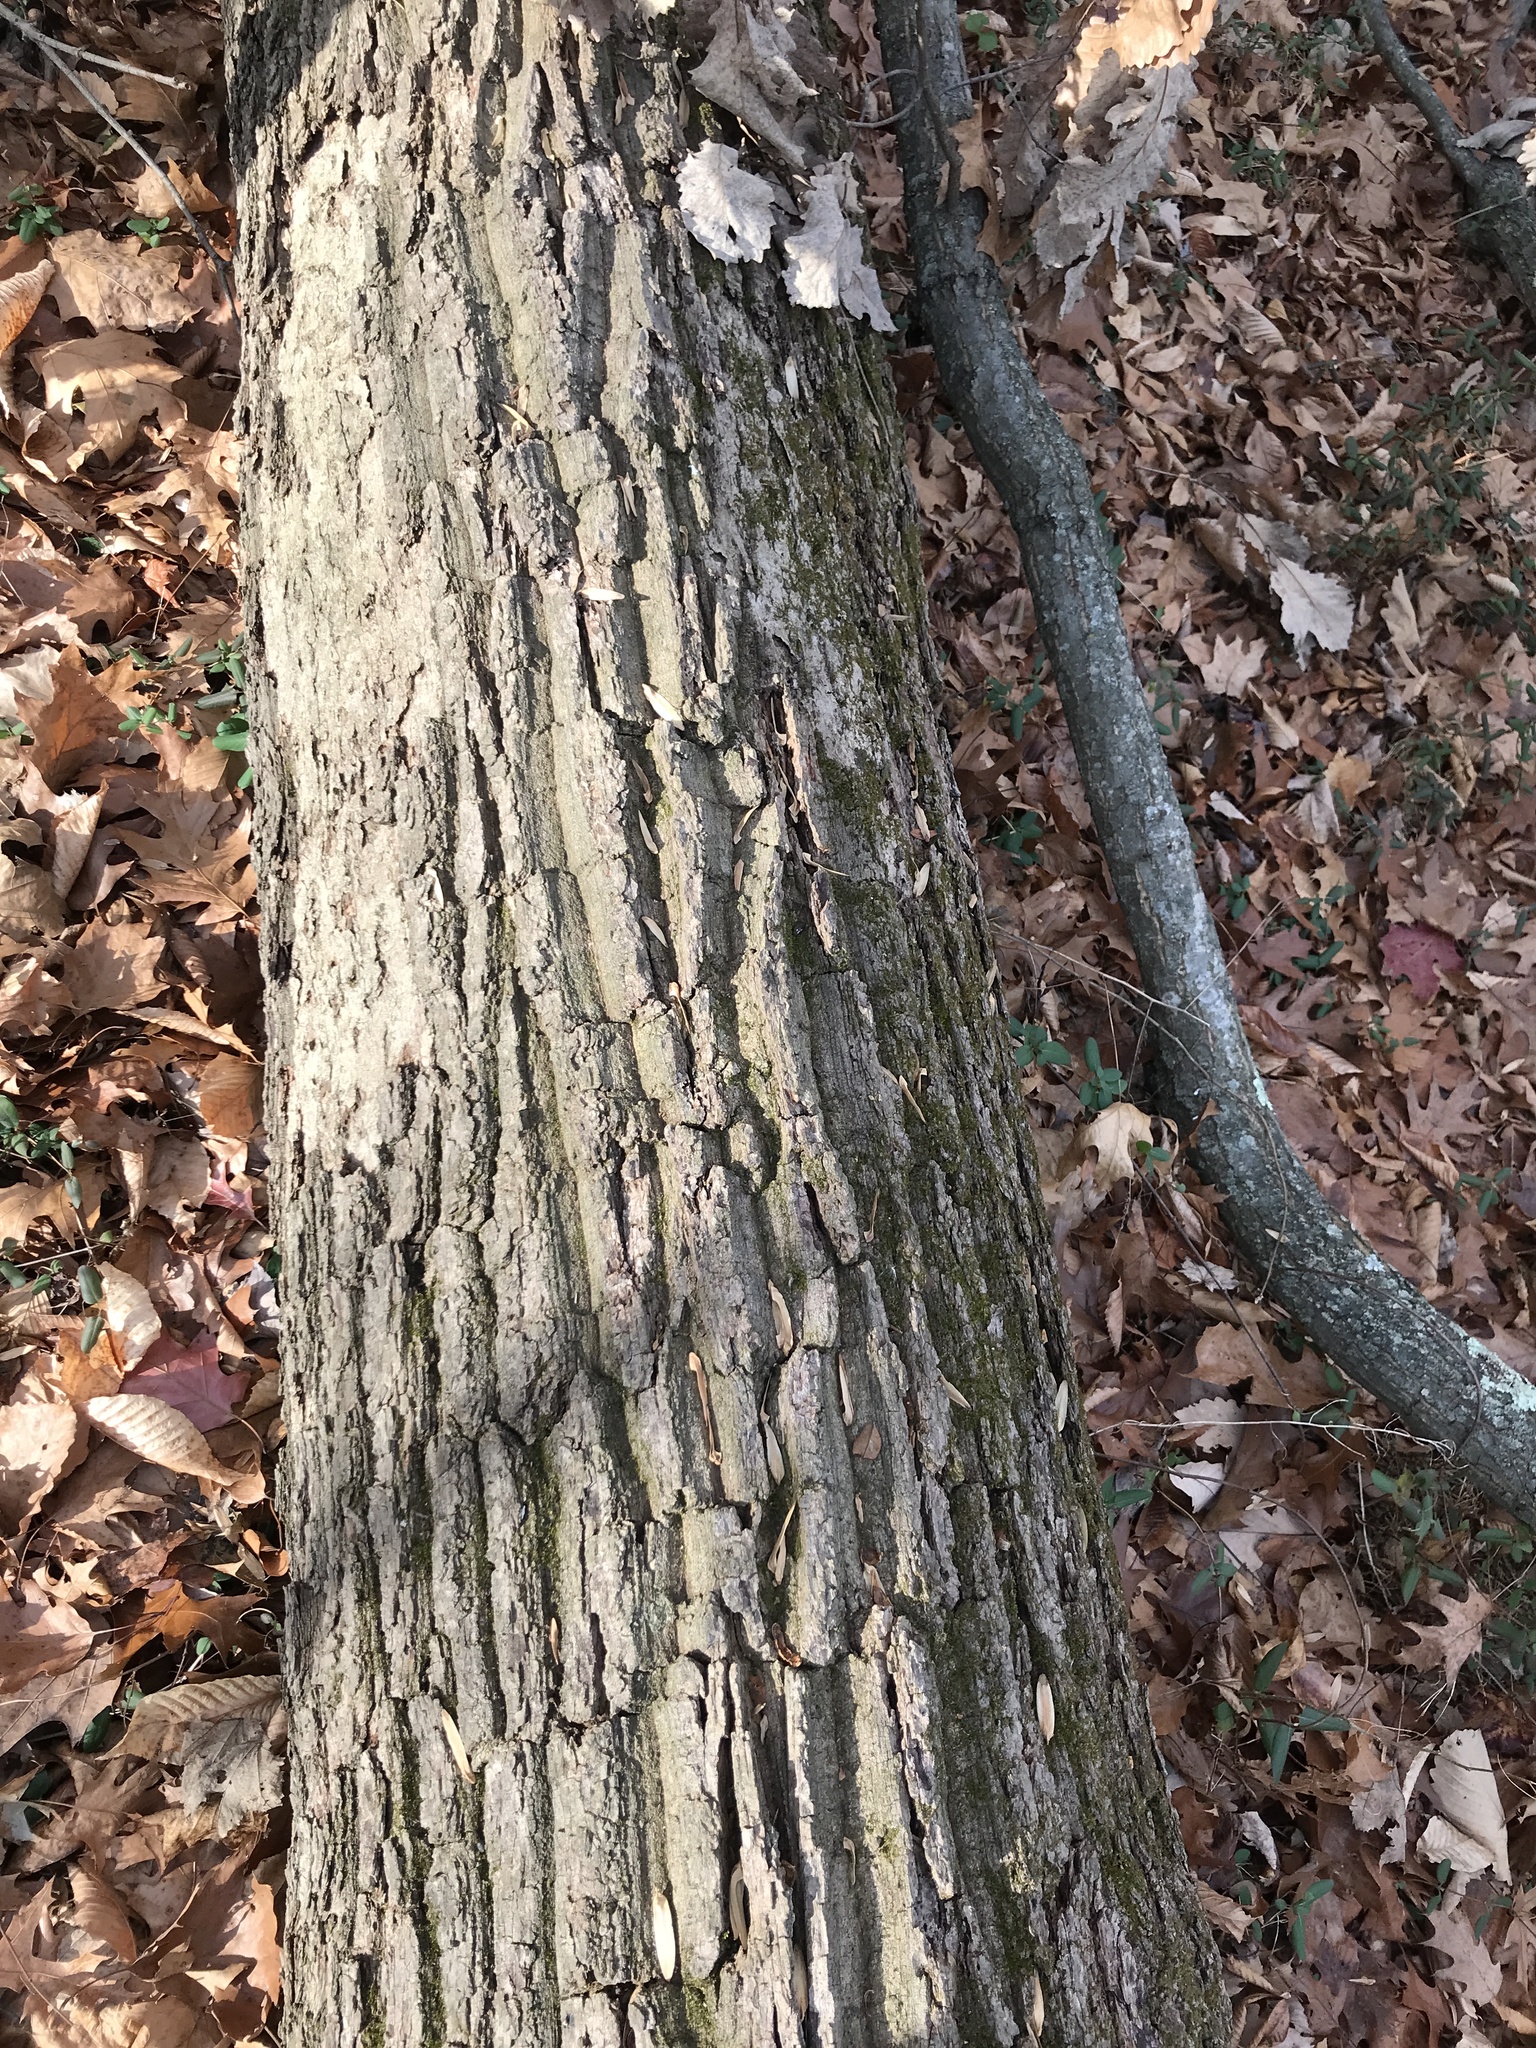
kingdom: Plantae
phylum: Tracheophyta
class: Magnoliopsida
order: Fagales
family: Fagaceae
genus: Quercus
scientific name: Quercus montana
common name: Chestnut oak
